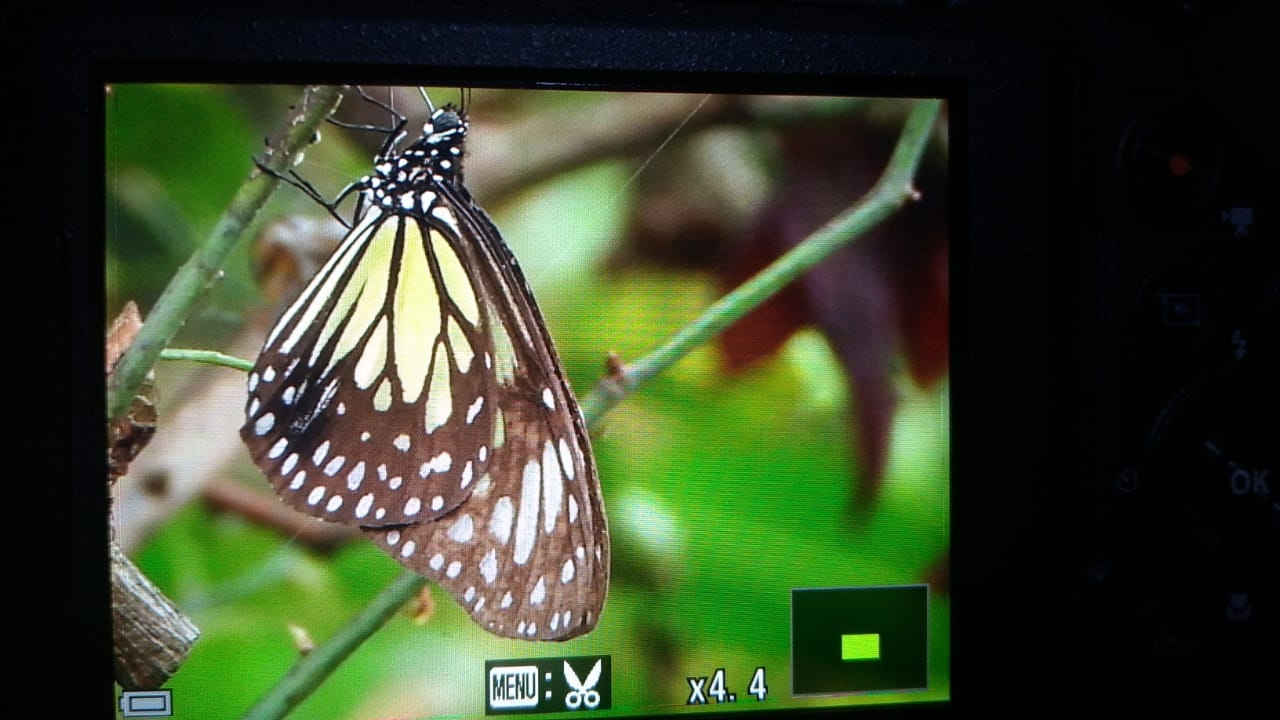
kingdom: Animalia
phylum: Arthropoda
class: Insecta
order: Lepidoptera
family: Nymphalidae
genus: Parantica
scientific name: Parantica aspasia
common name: Yellow glassy tiger
